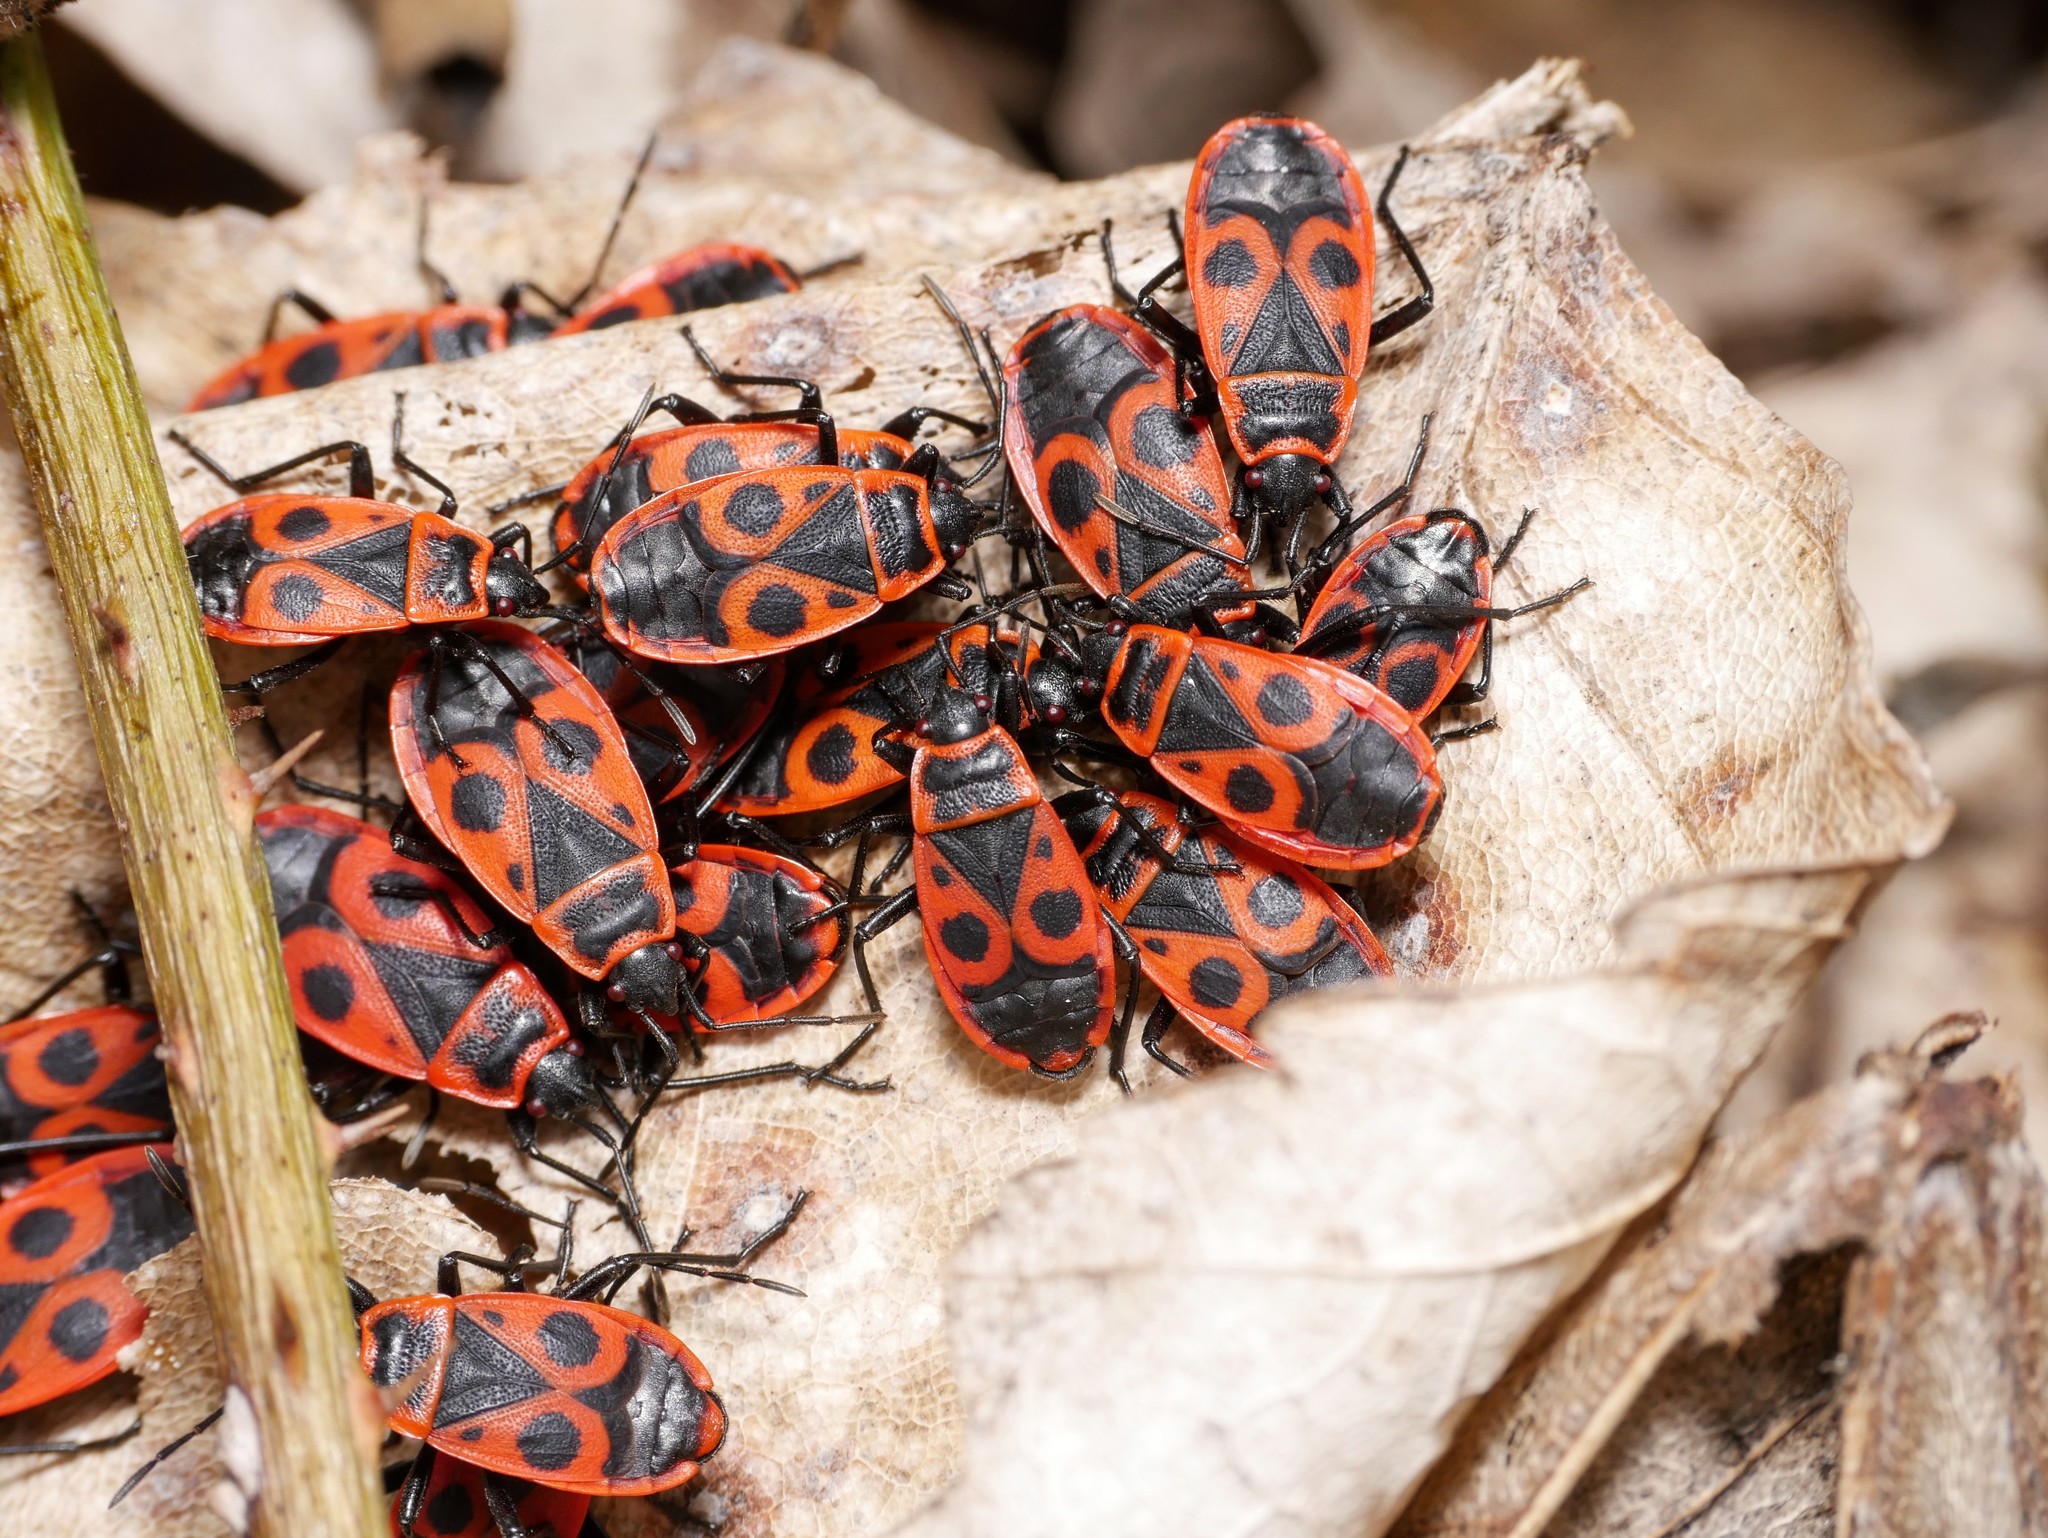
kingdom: Animalia
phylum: Arthropoda
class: Insecta
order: Hemiptera
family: Pyrrhocoridae
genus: Pyrrhocoris
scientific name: Pyrrhocoris apterus
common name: Firebug
